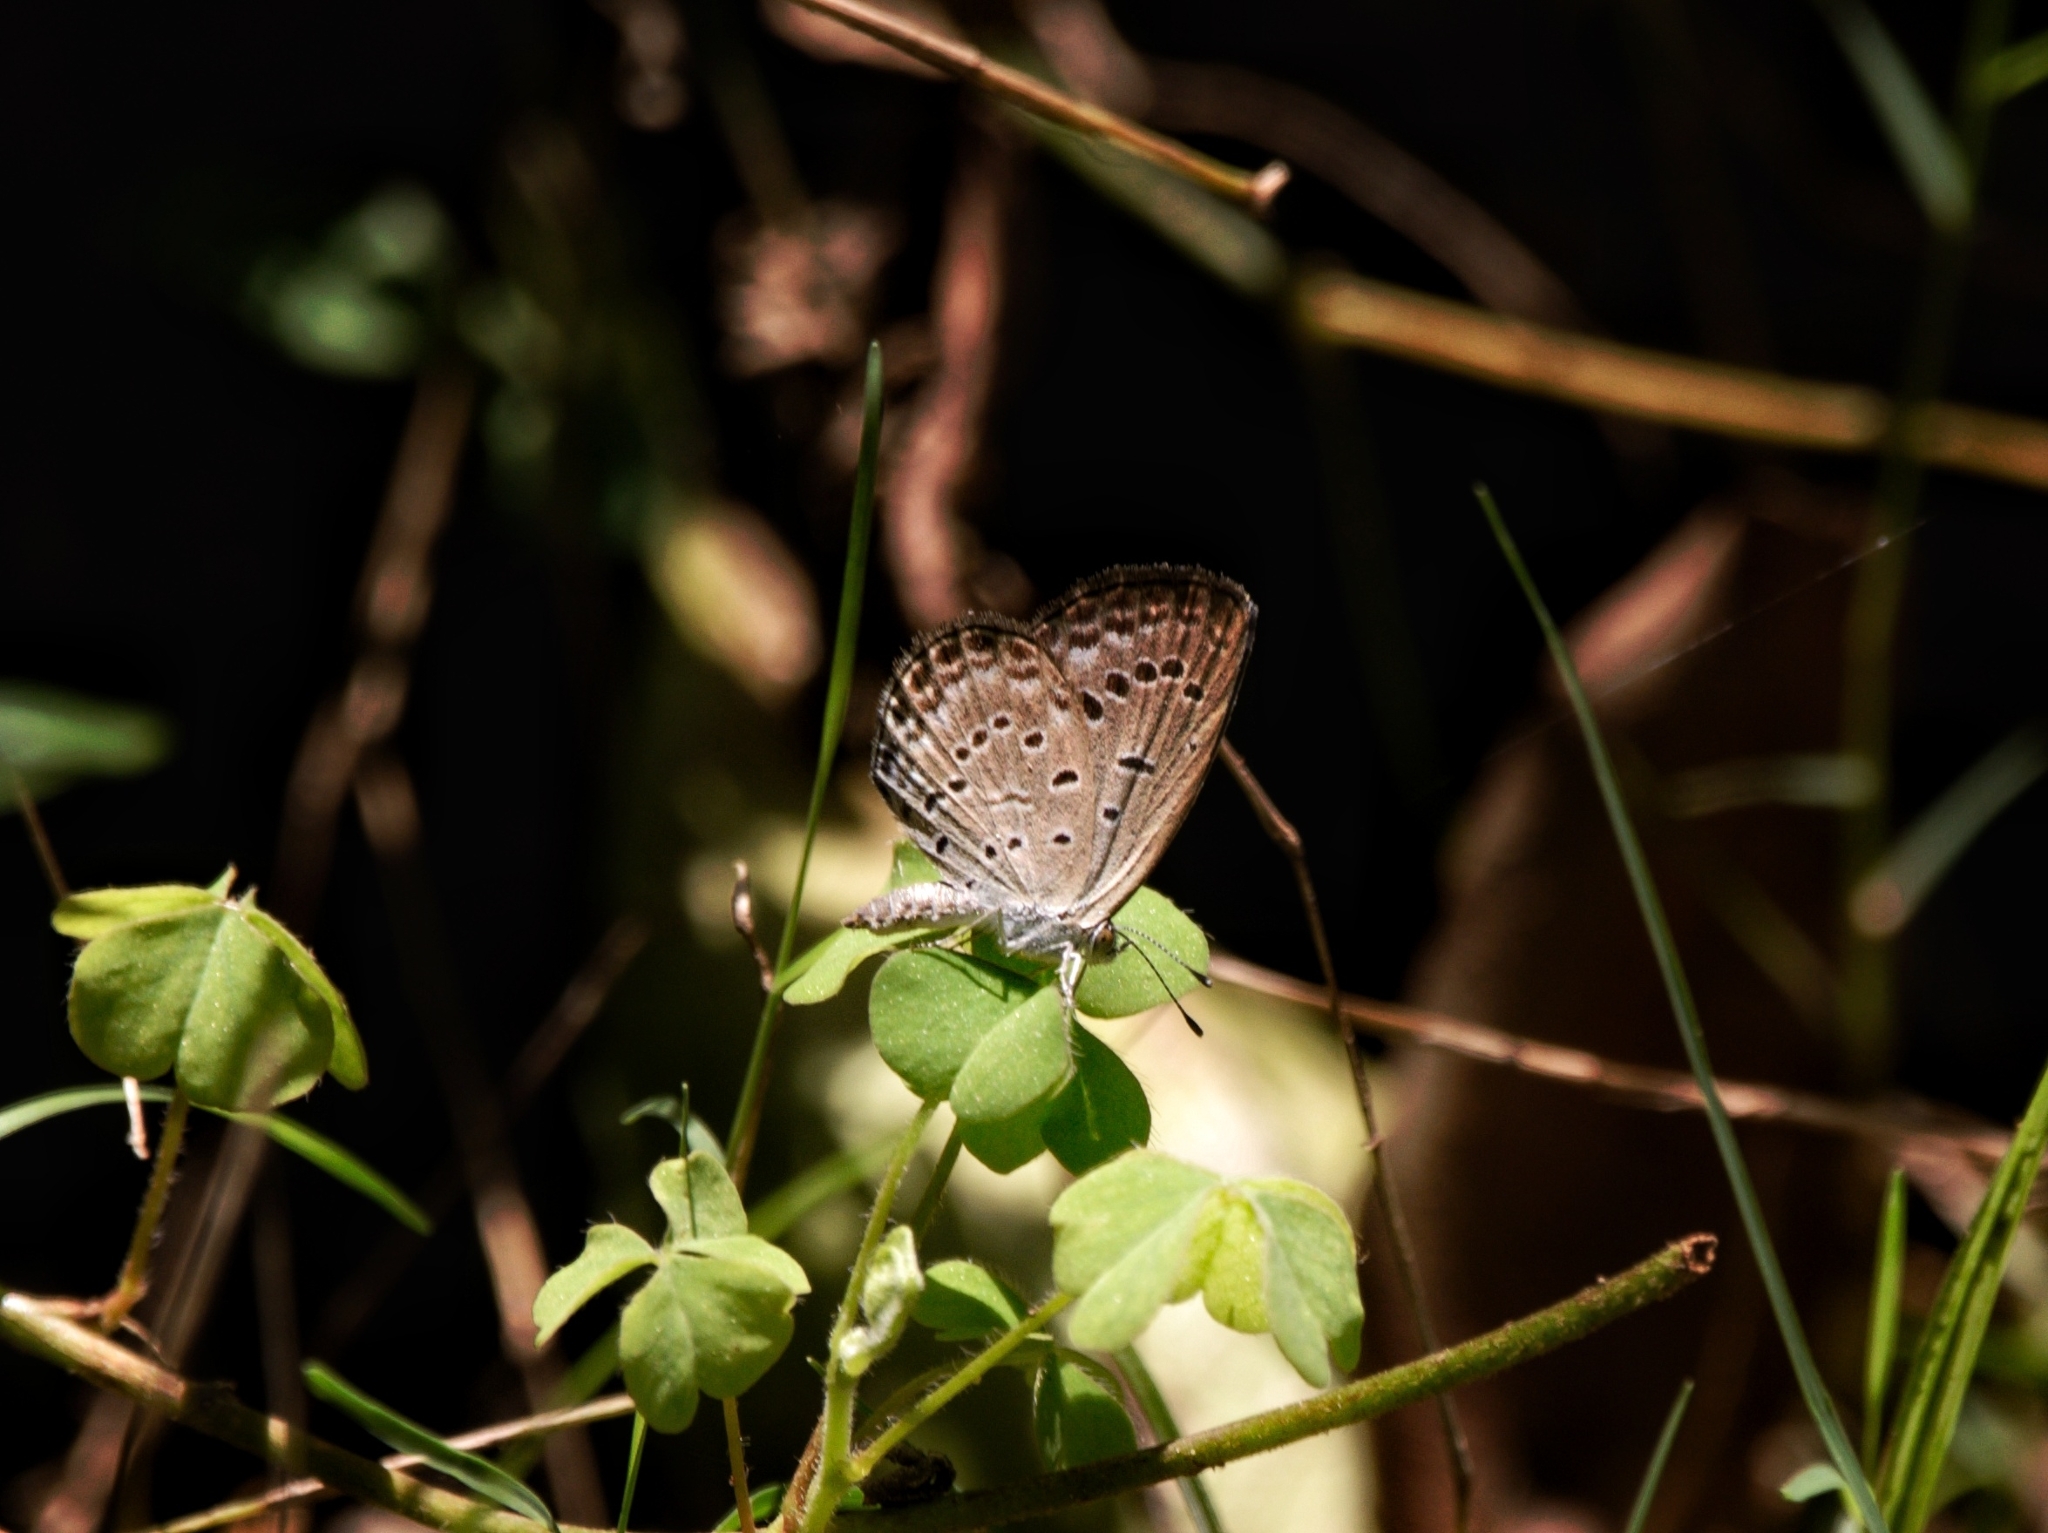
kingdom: Animalia
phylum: Arthropoda
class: Insecta
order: Lepidoptera
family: Lycaenidae
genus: Pseudozizeeria
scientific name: Pseudozizeeria maha
